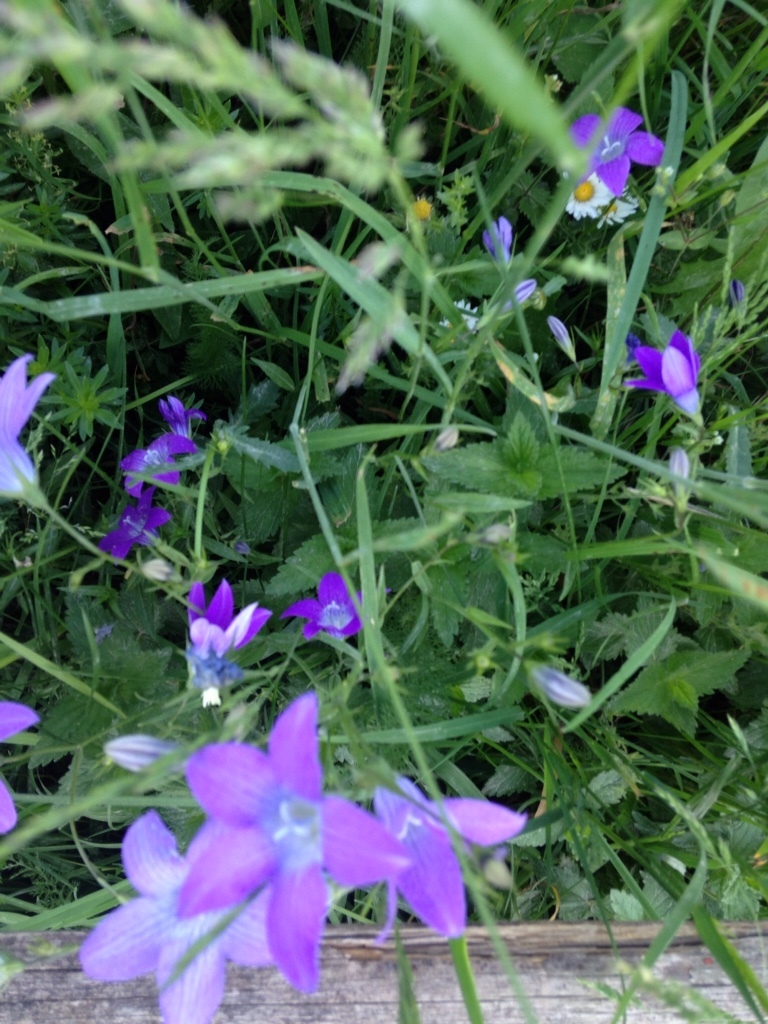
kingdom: Plantae
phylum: Tracheophyta
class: Magnoliopsida
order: Asterales
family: Campanulaceae
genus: Campanula
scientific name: Campanula patula
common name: Spreading bellflower
